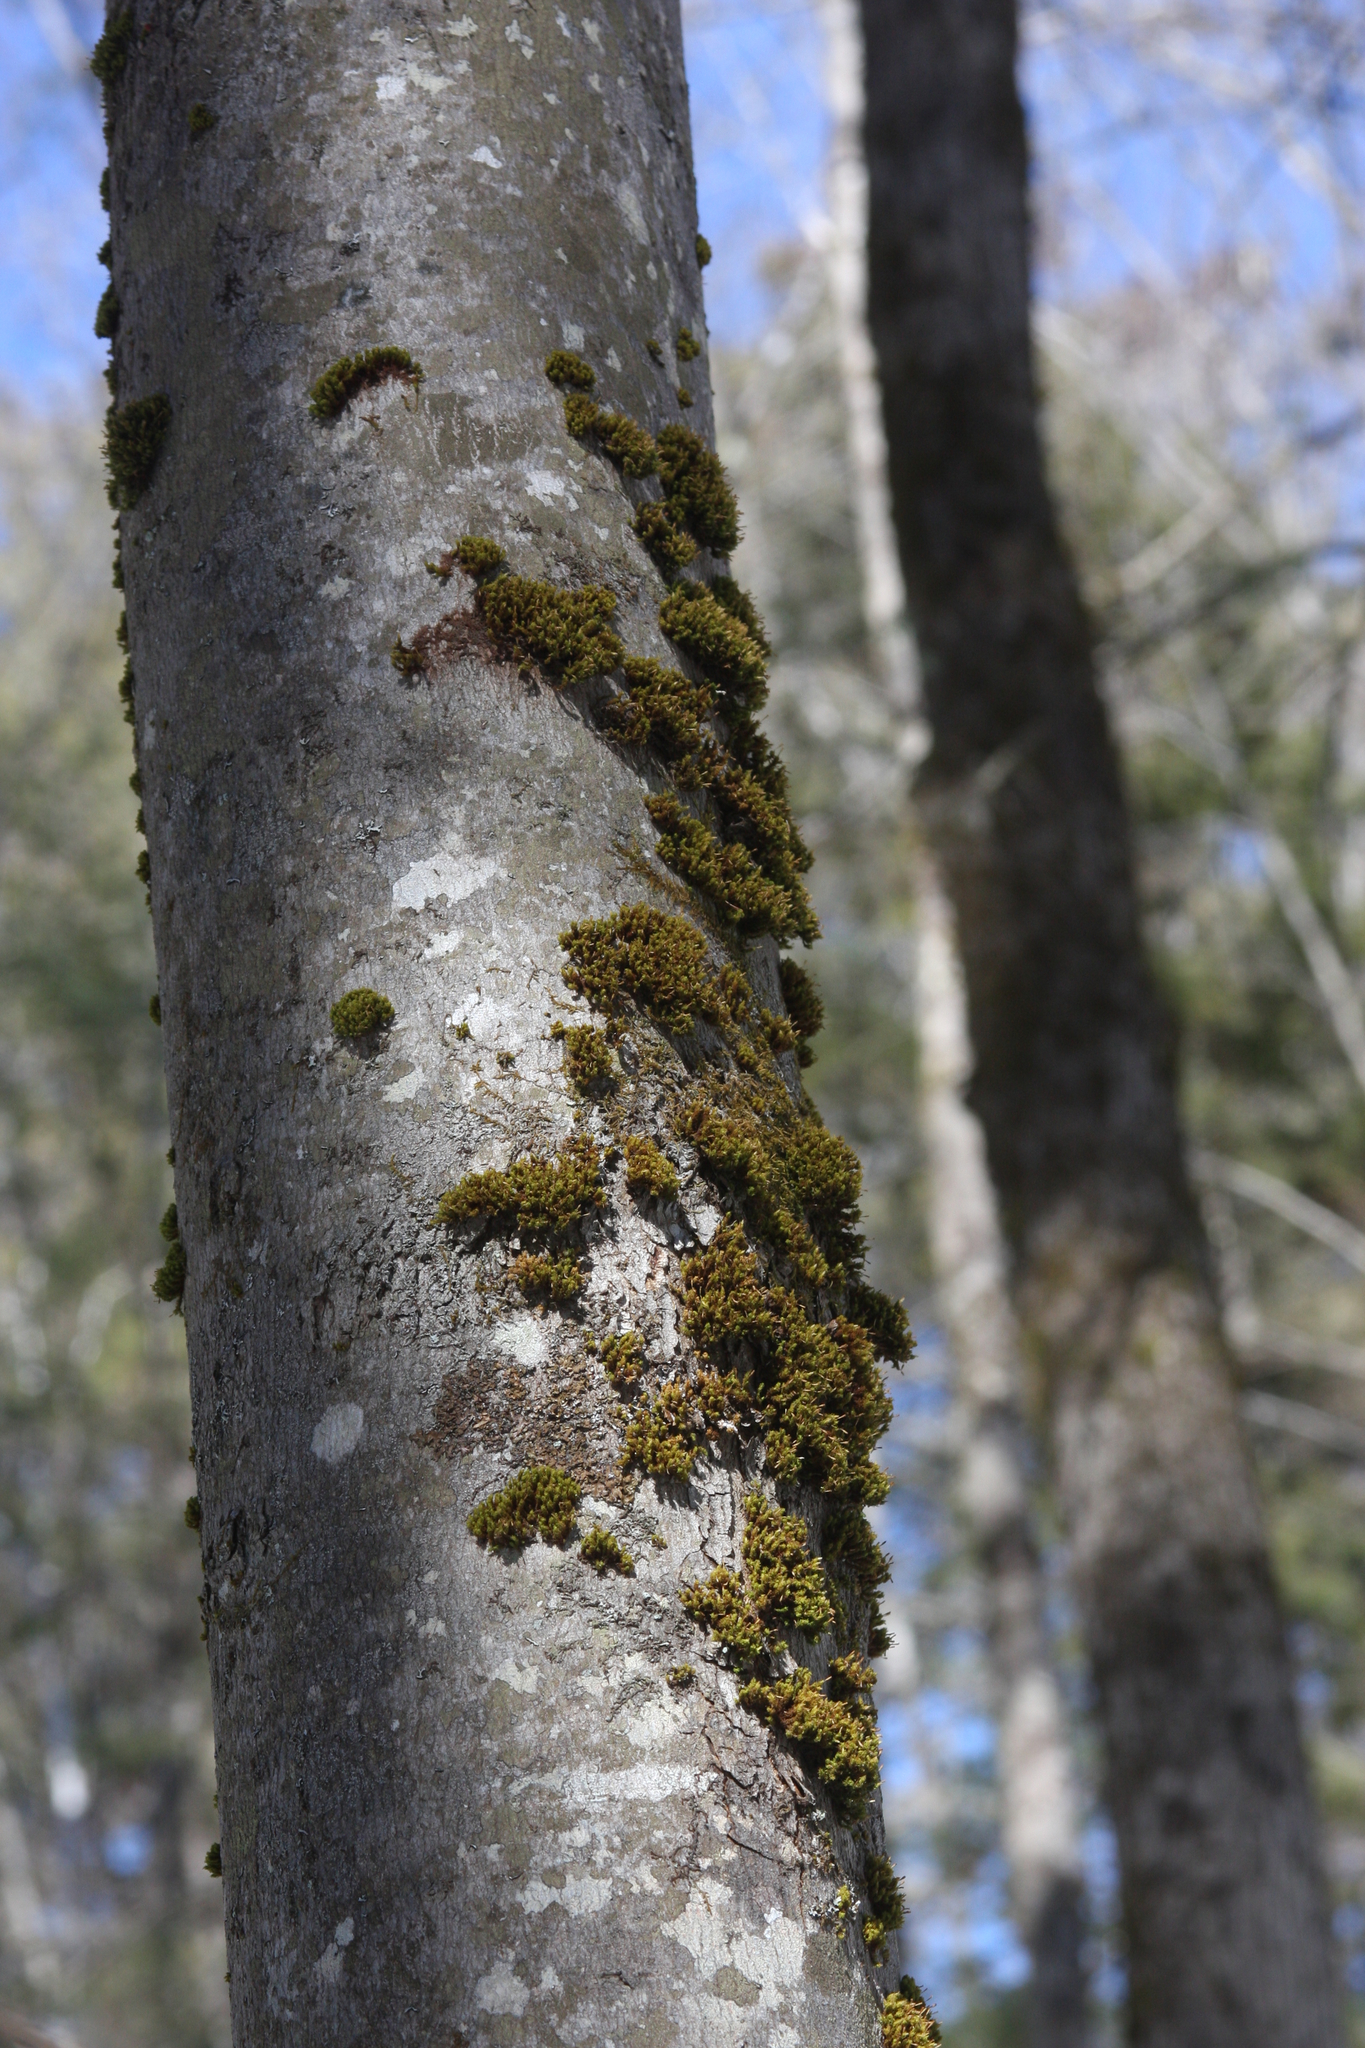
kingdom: Plantae
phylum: Bryophyta
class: Bryopsida
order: Orthotrichales
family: Orthotrichaceae
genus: Ulota
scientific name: Ulota crispa
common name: Crisped pincushion moss
